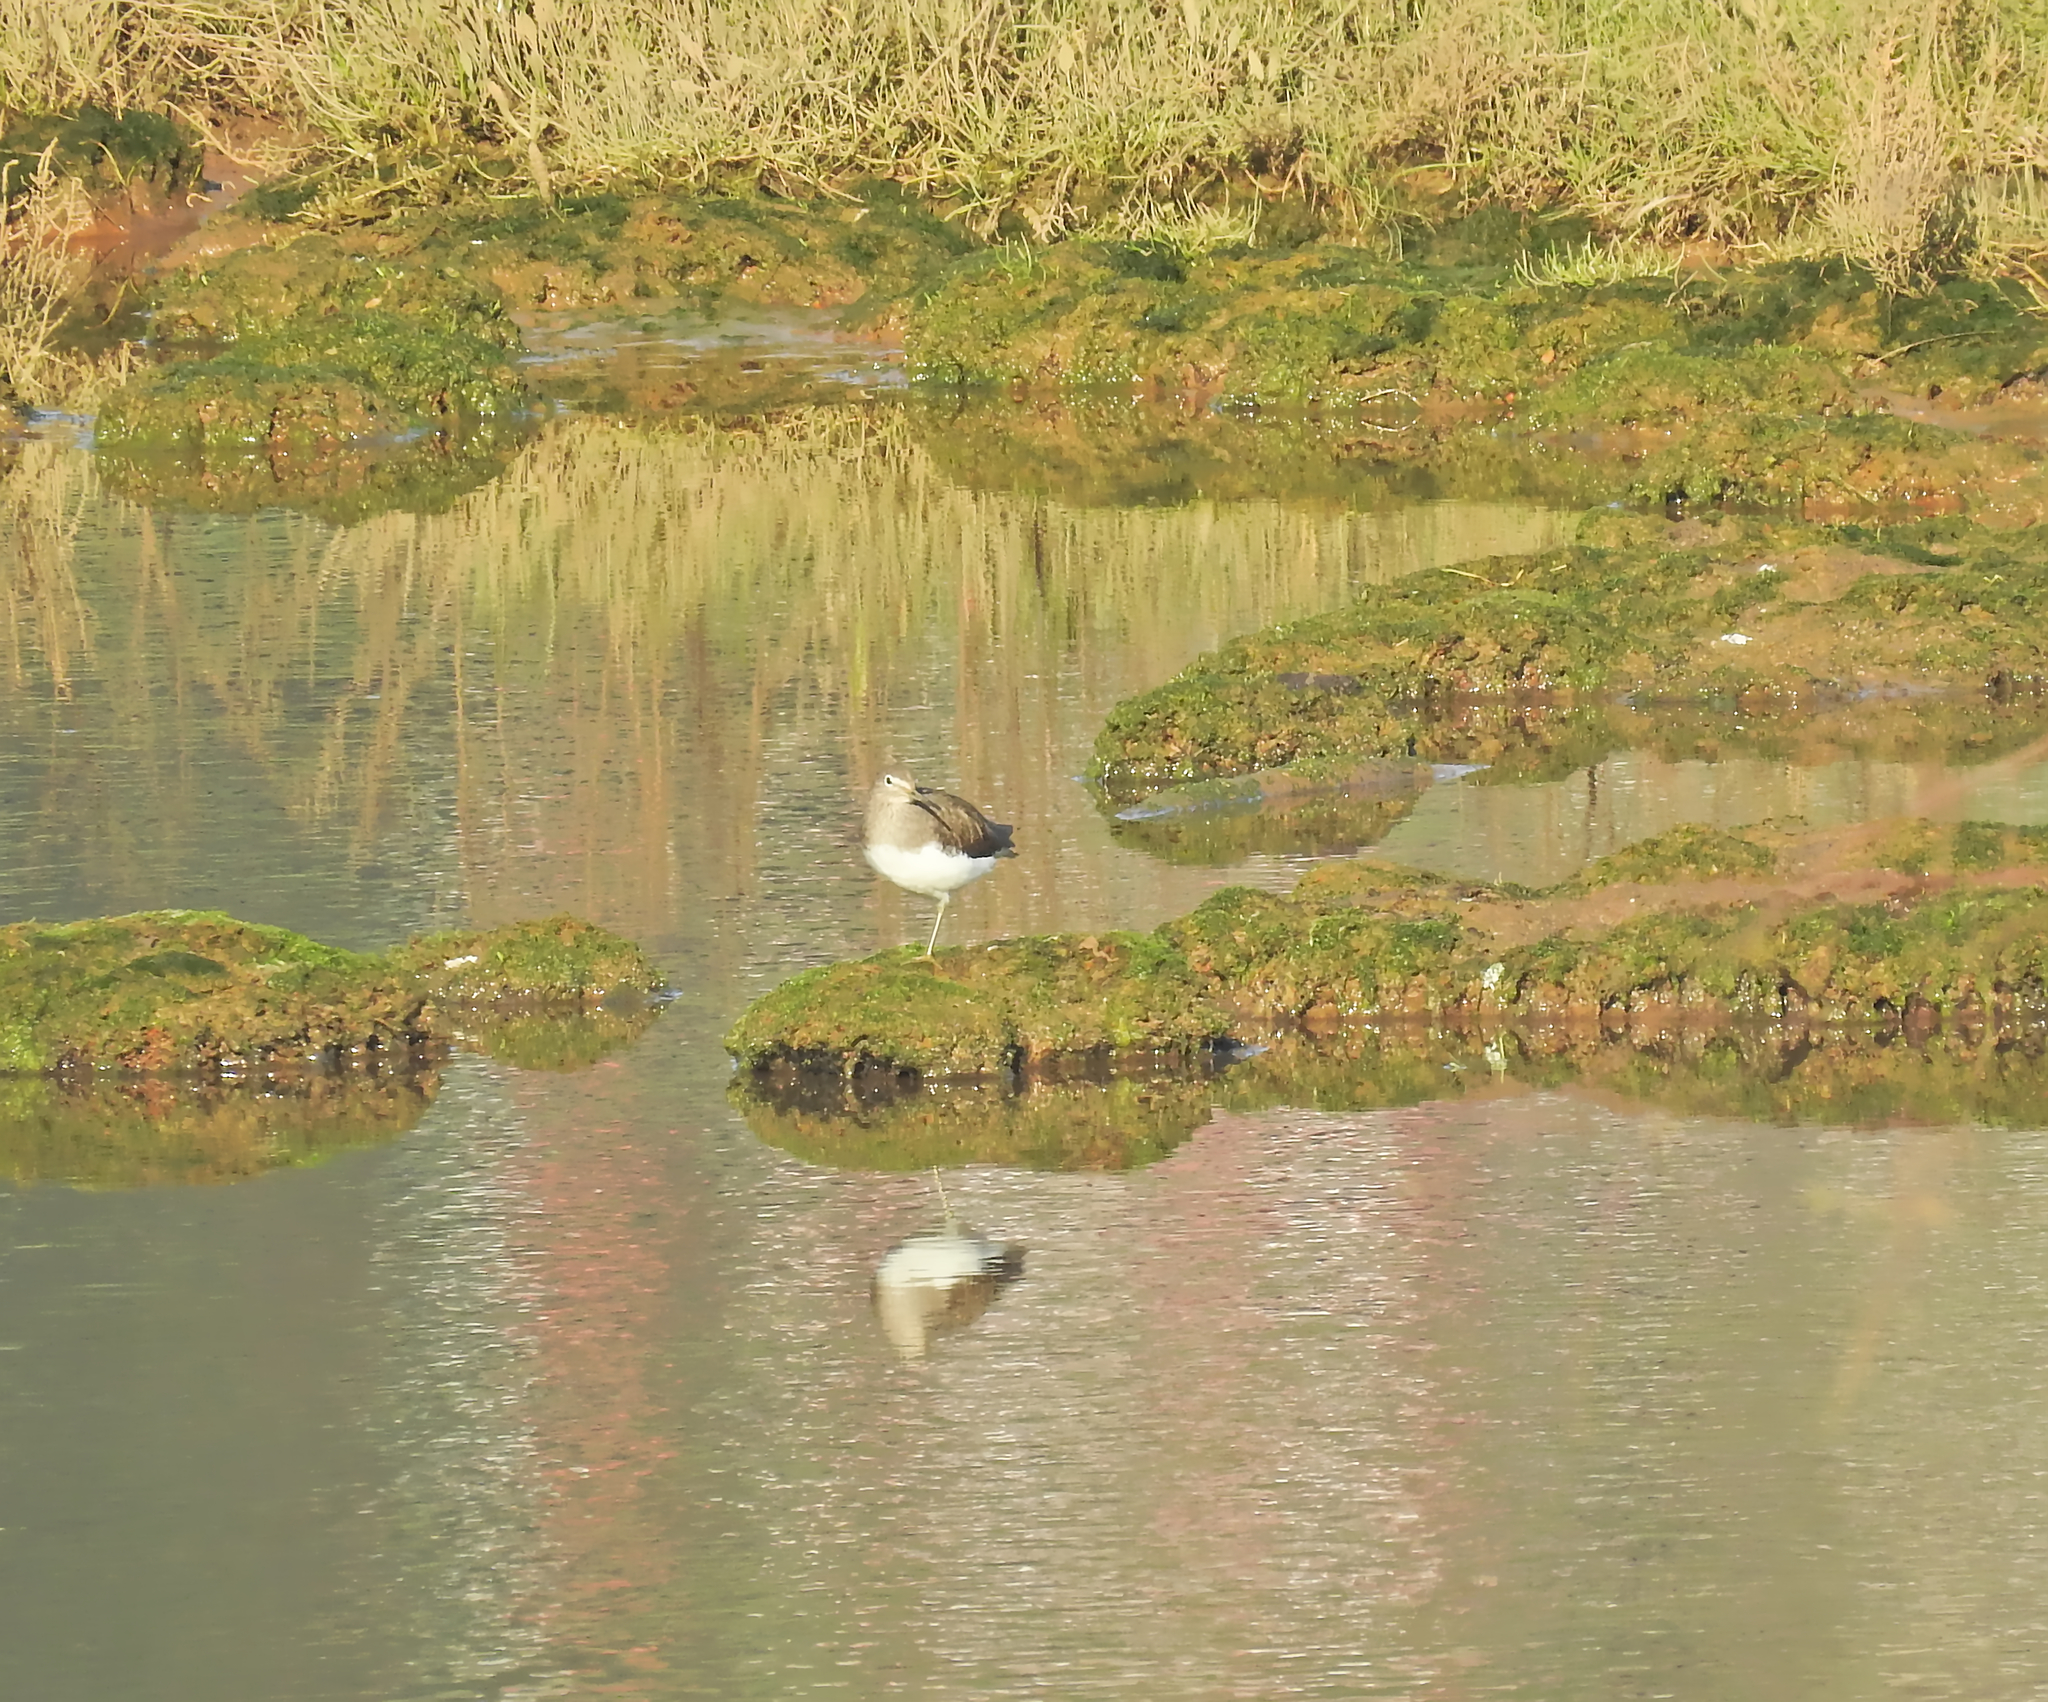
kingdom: Animalia
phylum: Chordata
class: Aves
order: Charadriiformes
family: Scolopacidae
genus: Tringa
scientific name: Tringa ochropus
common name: Green sandpiper
